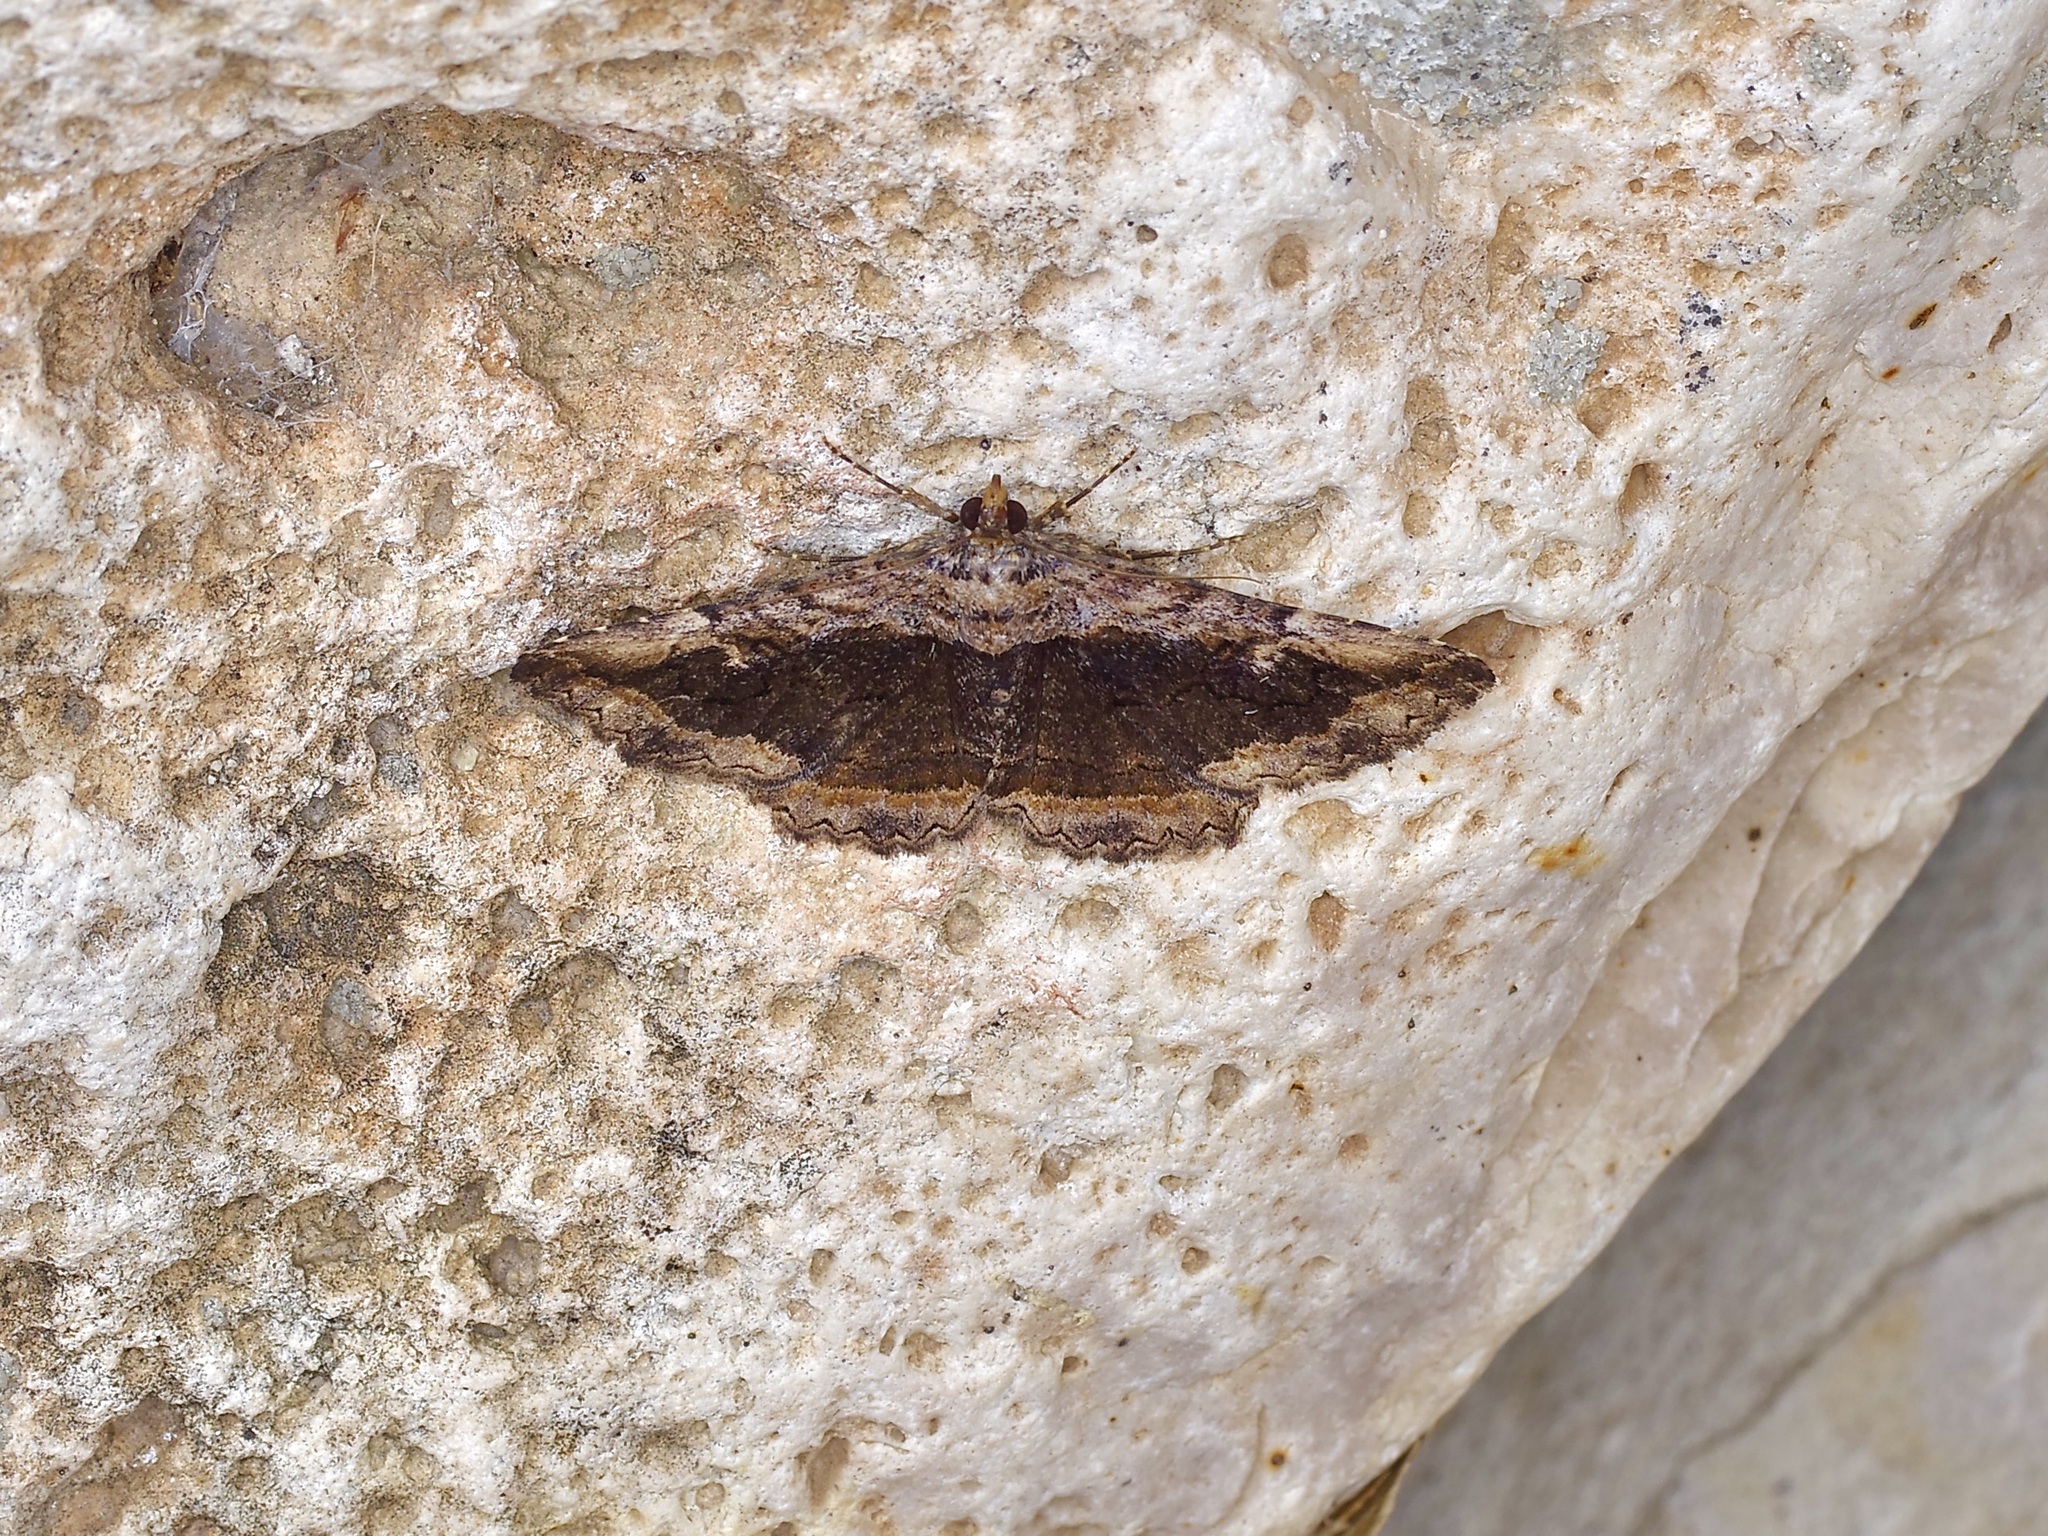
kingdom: Animalia
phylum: Arthropoda
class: Insecta
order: Lepidoptera
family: Erebidae
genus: Zaleops
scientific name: Zaleops umbrina
